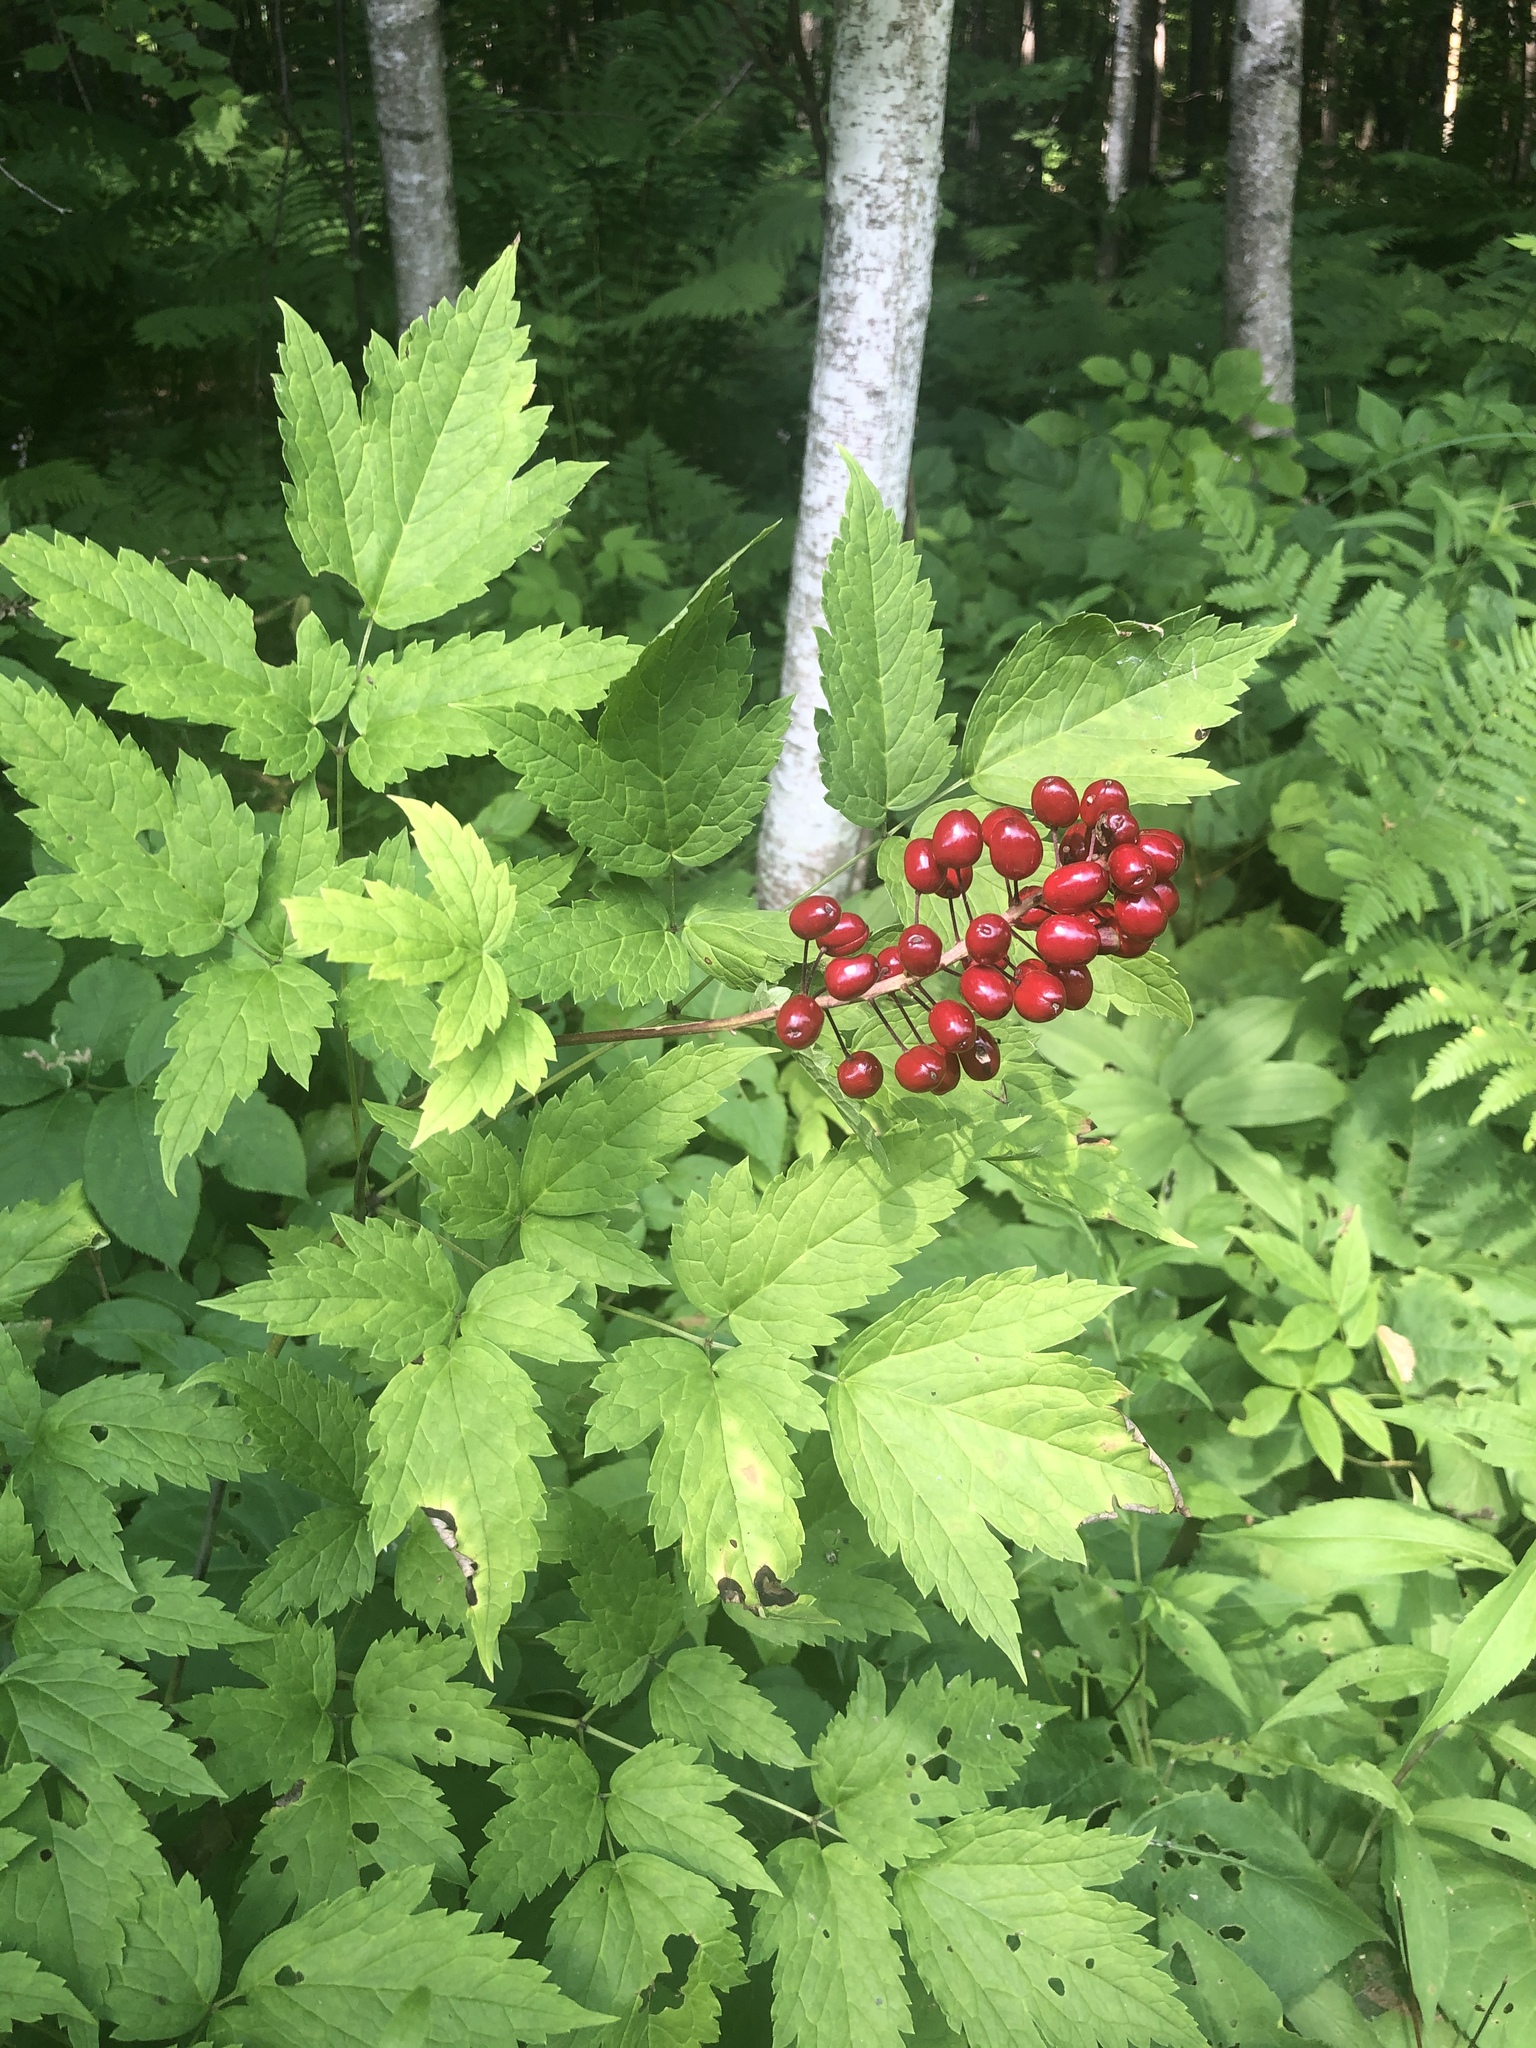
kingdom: Plantae
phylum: Tracheophyta
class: Magnoliopsida
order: Ranunculales
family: Ranunculaceae
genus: Actaea
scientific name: Actaea rubra
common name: Red baneberry
